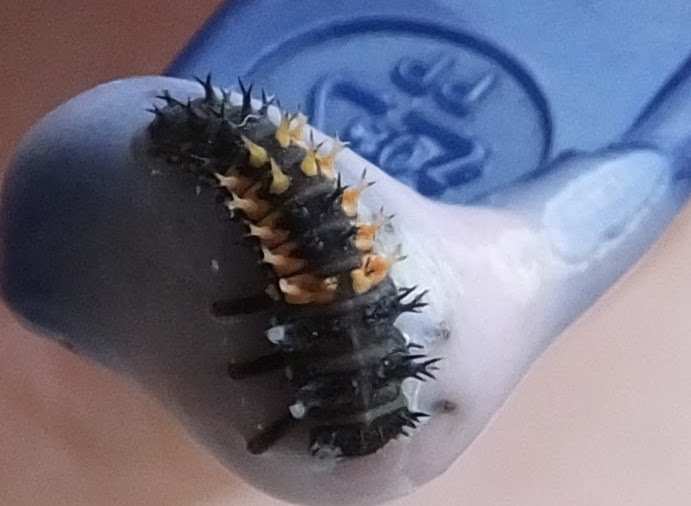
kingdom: Animalia
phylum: Arthropoda
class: Insecta
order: Coleoptera
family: Coccinellidae
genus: Harmonia
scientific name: Harmonia axyridis
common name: Harlequin ladybird
